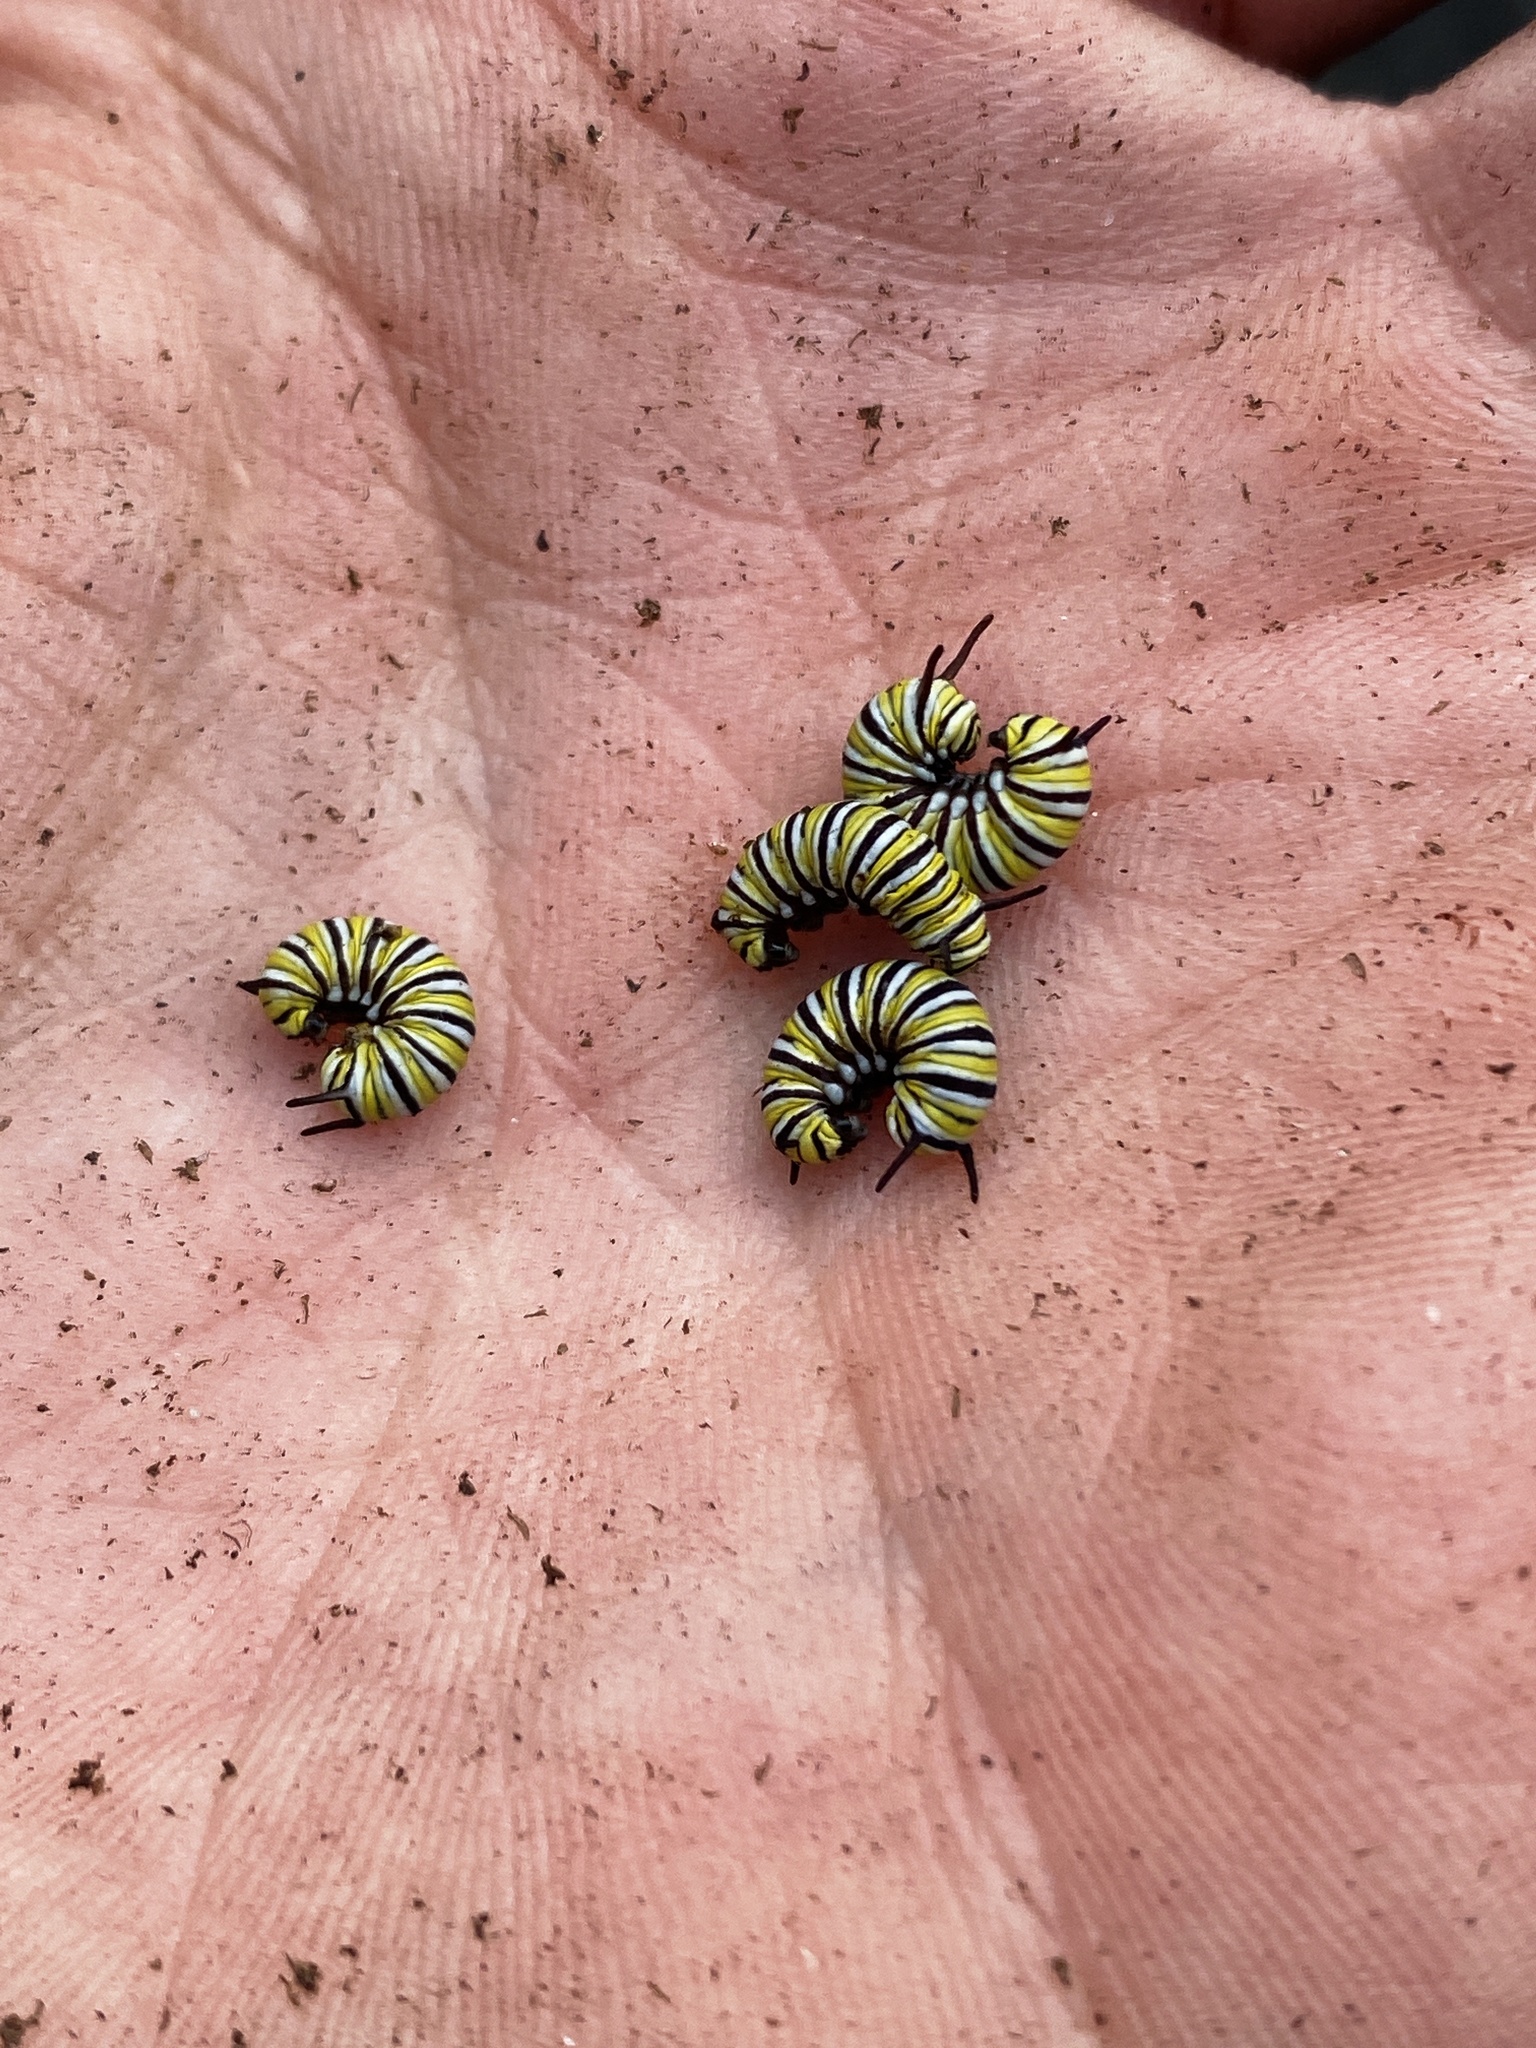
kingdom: Animalia
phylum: Arthropoda
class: Insecta
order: Lepidoptera
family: Nymphalidae
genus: Danaus
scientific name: Danaus plexippus
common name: Monarch
